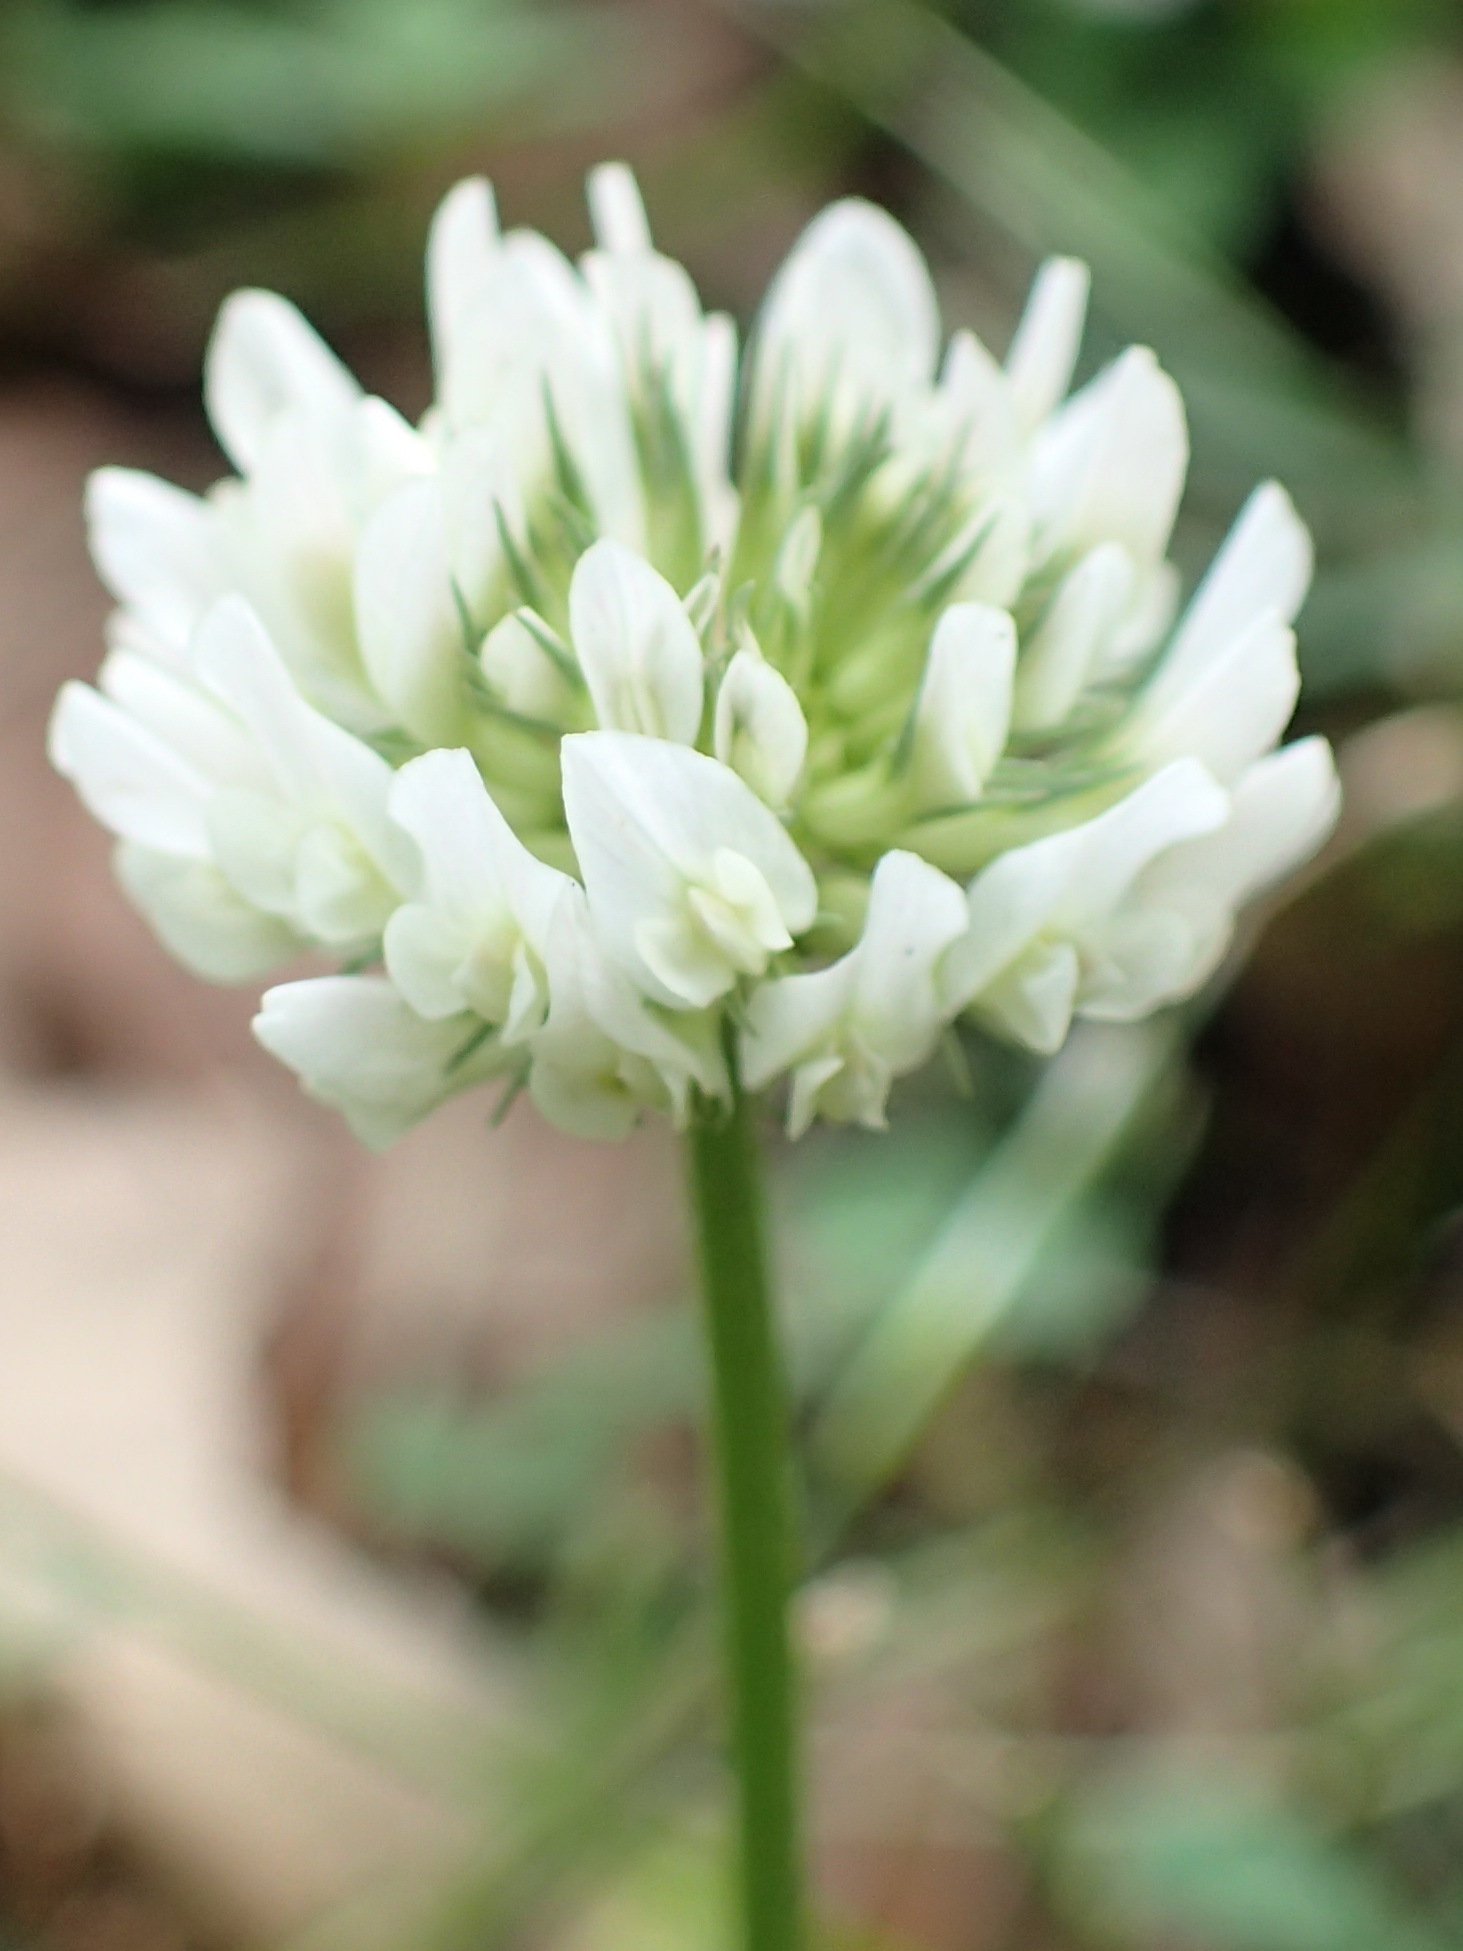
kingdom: Plantae
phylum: Tracheophyta
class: Magnoliopsida
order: Fabales
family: Fabaceae
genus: Trifolium
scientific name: Trifolium repens
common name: White clover
